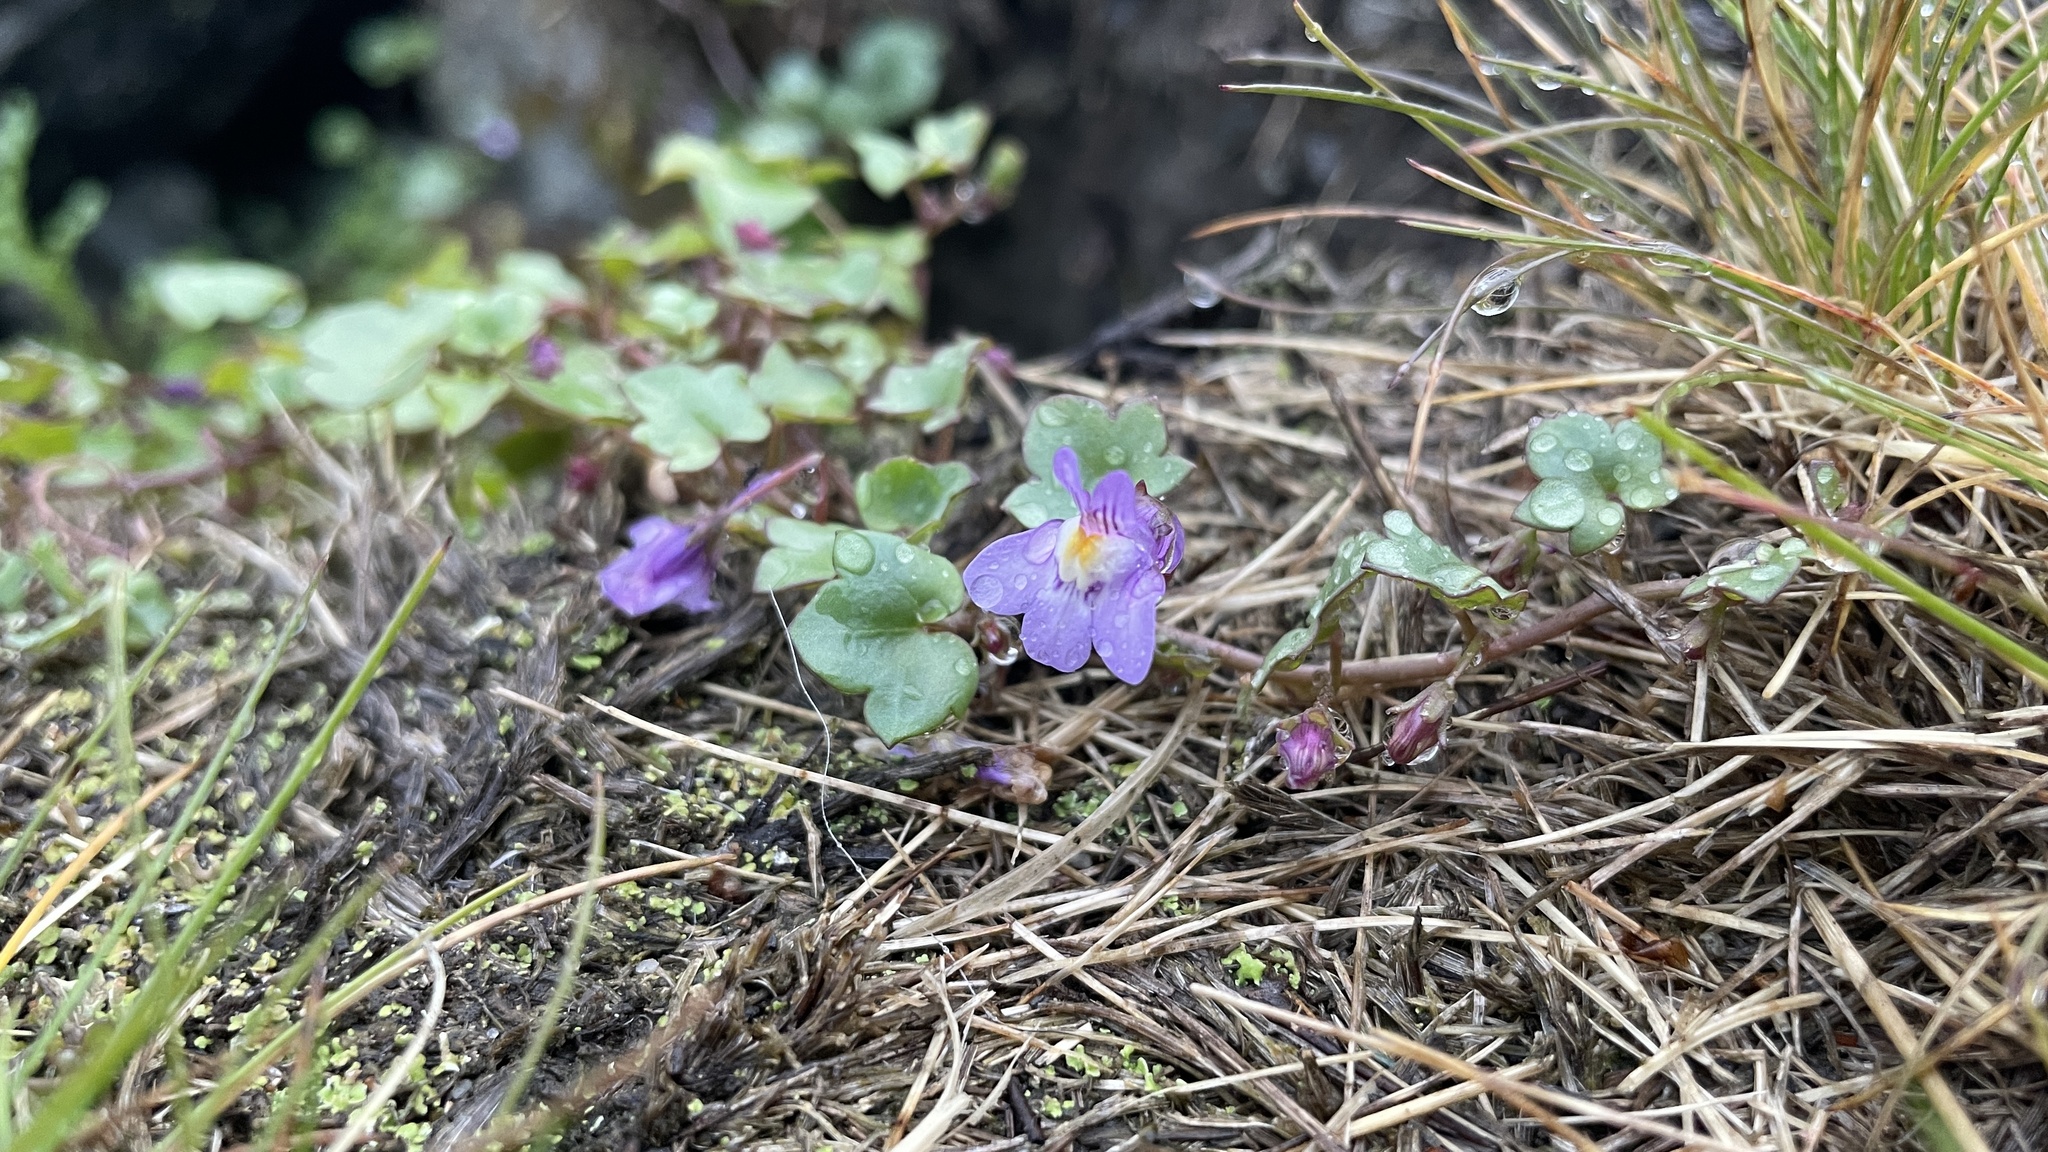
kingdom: Plantae
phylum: Tracheophyta
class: Magnoliopsida
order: Lamiales
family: Plantaginaceae
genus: Cymbalaria
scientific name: Cymbalaria muralis
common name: Ivy-leaved toadflax
